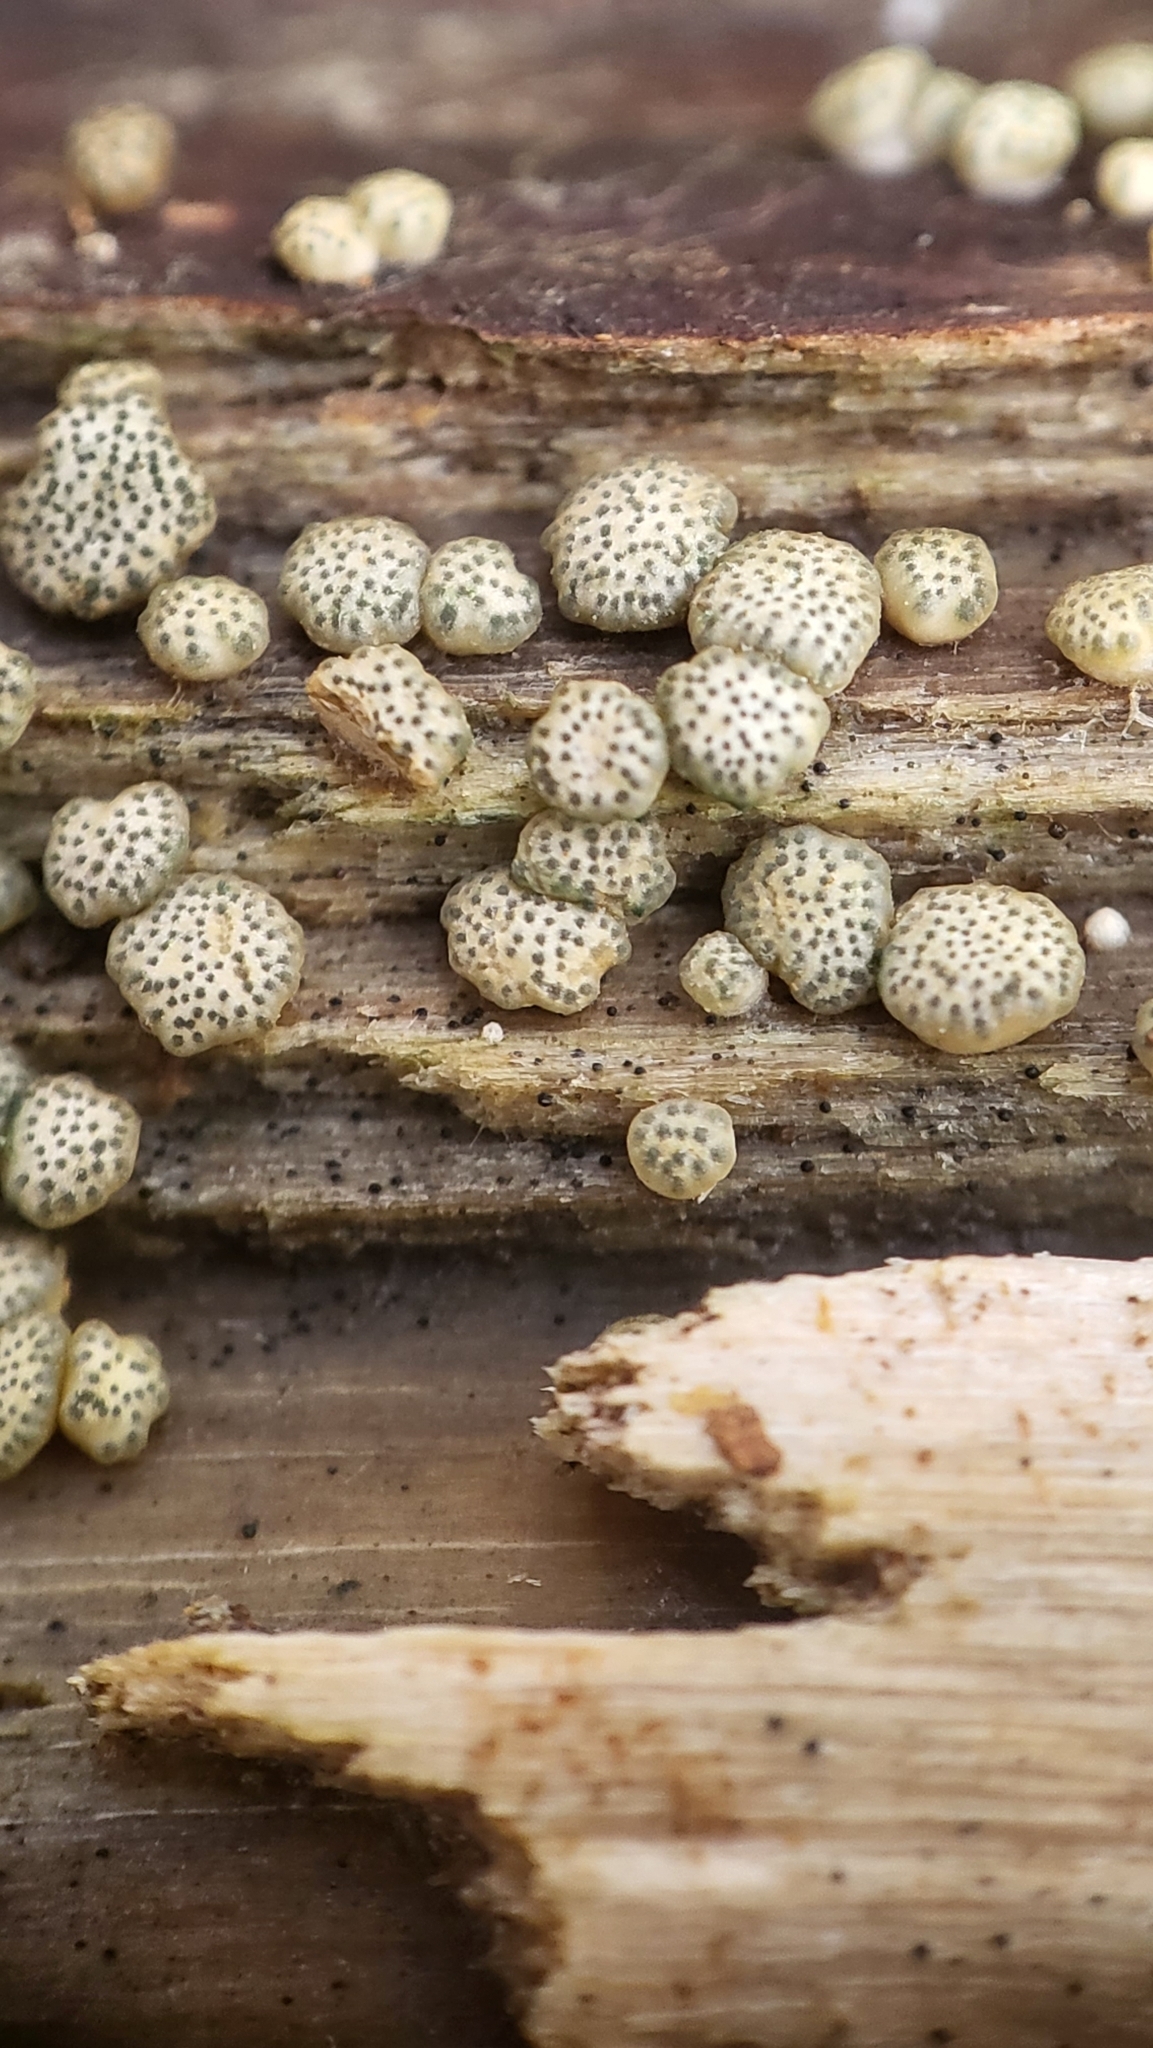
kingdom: Fungi
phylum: Ascomycota
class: Sordariomycetes
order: Hypocreales
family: Hypocreaceae
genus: Trichoderma
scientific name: Trichoderma gelatinosum
